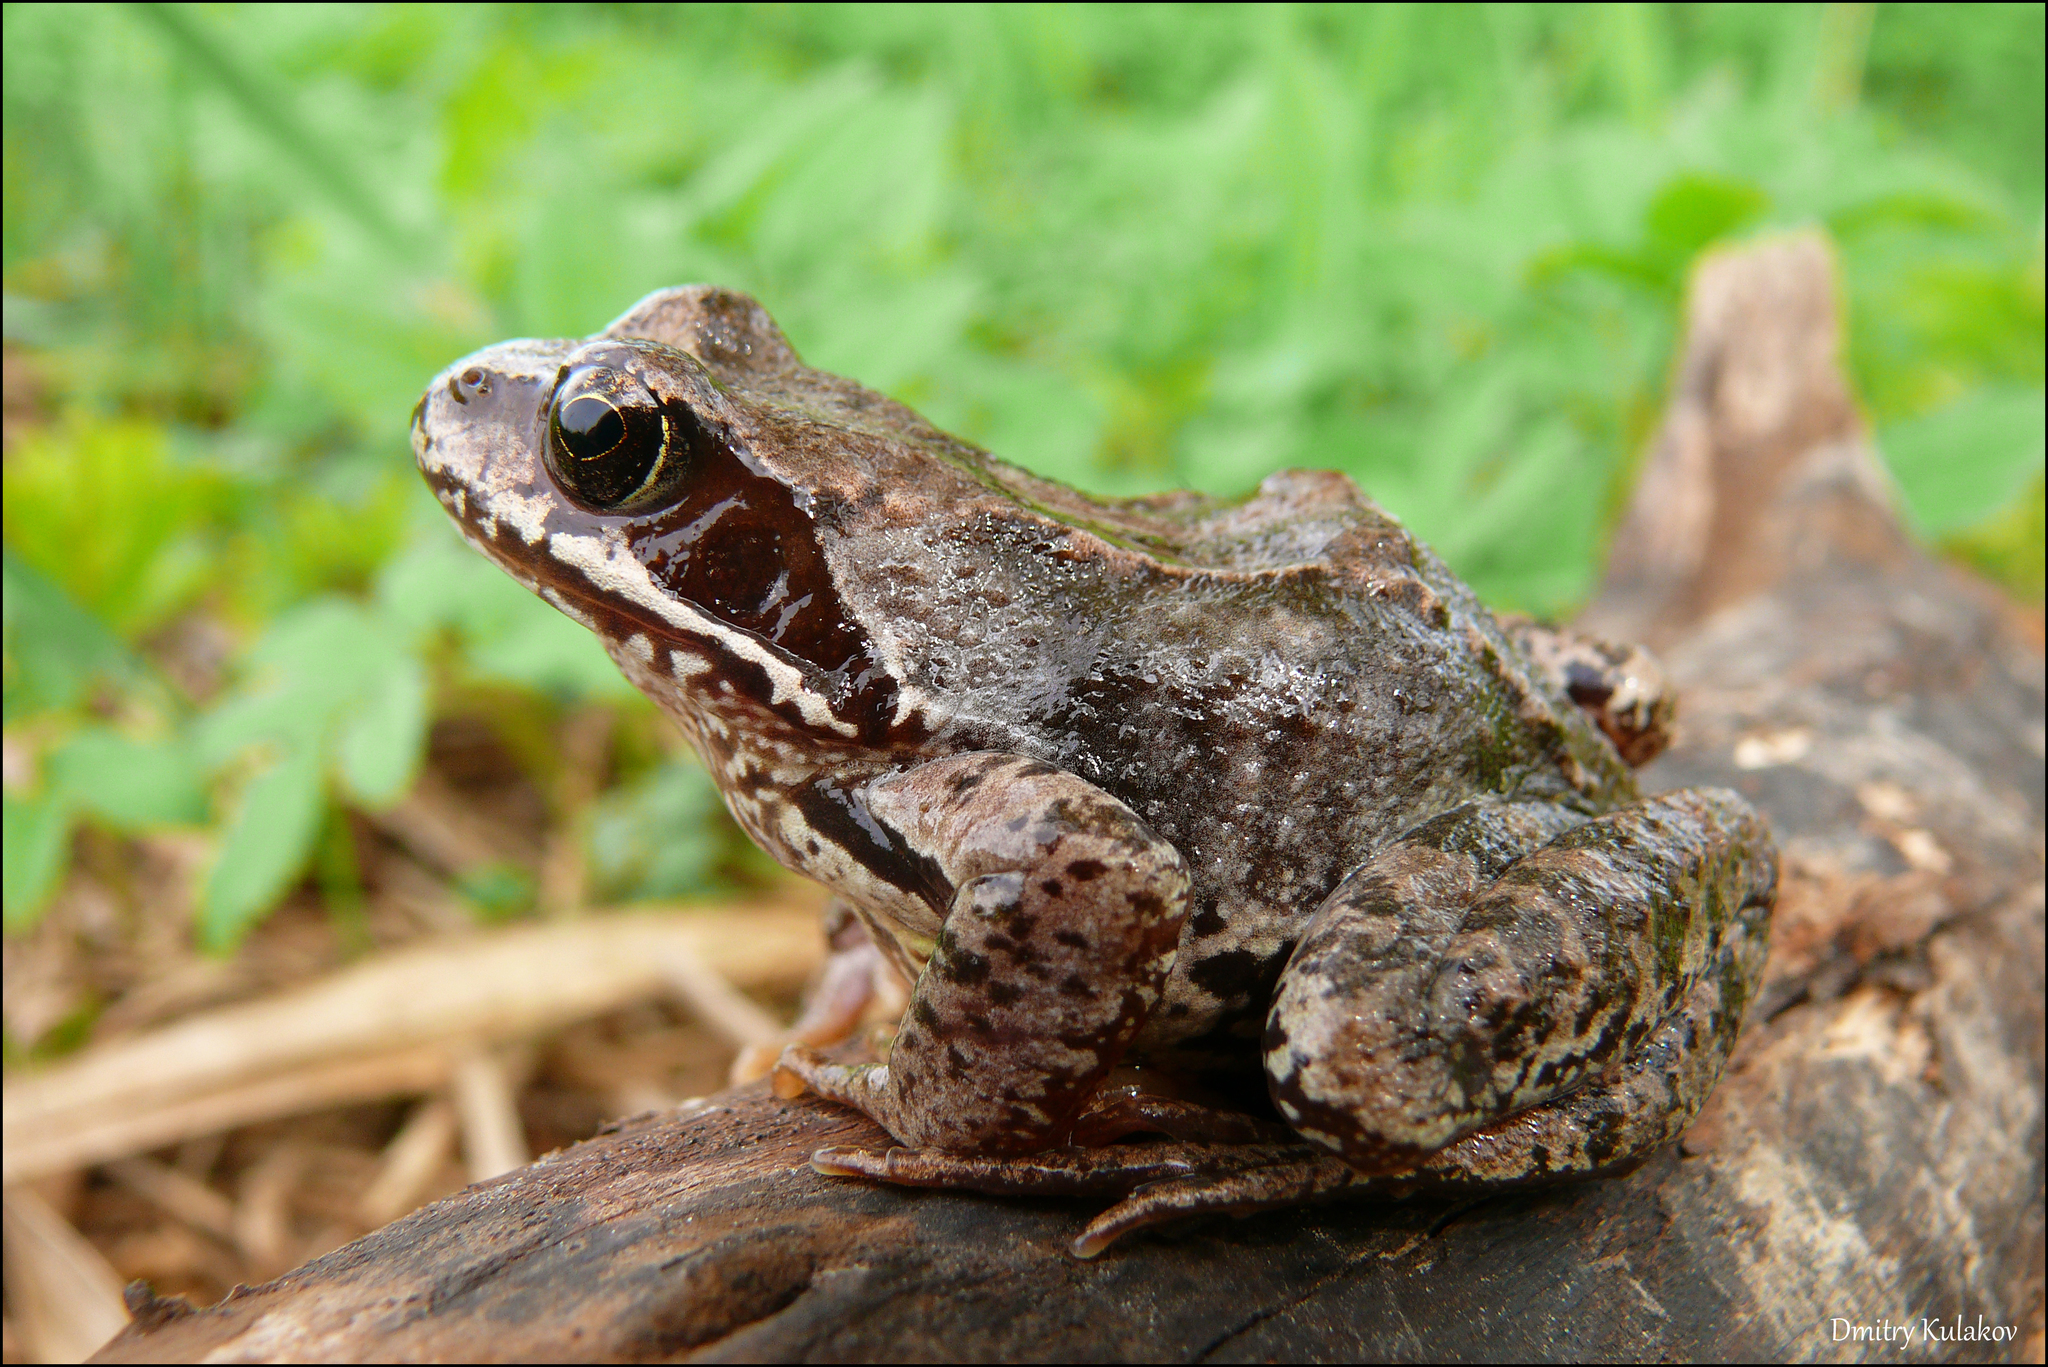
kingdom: Animalia
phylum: Chordata
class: Amphibia
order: Anura
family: Ranidae
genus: Rana
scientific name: Rana temporaria
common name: Common frog
